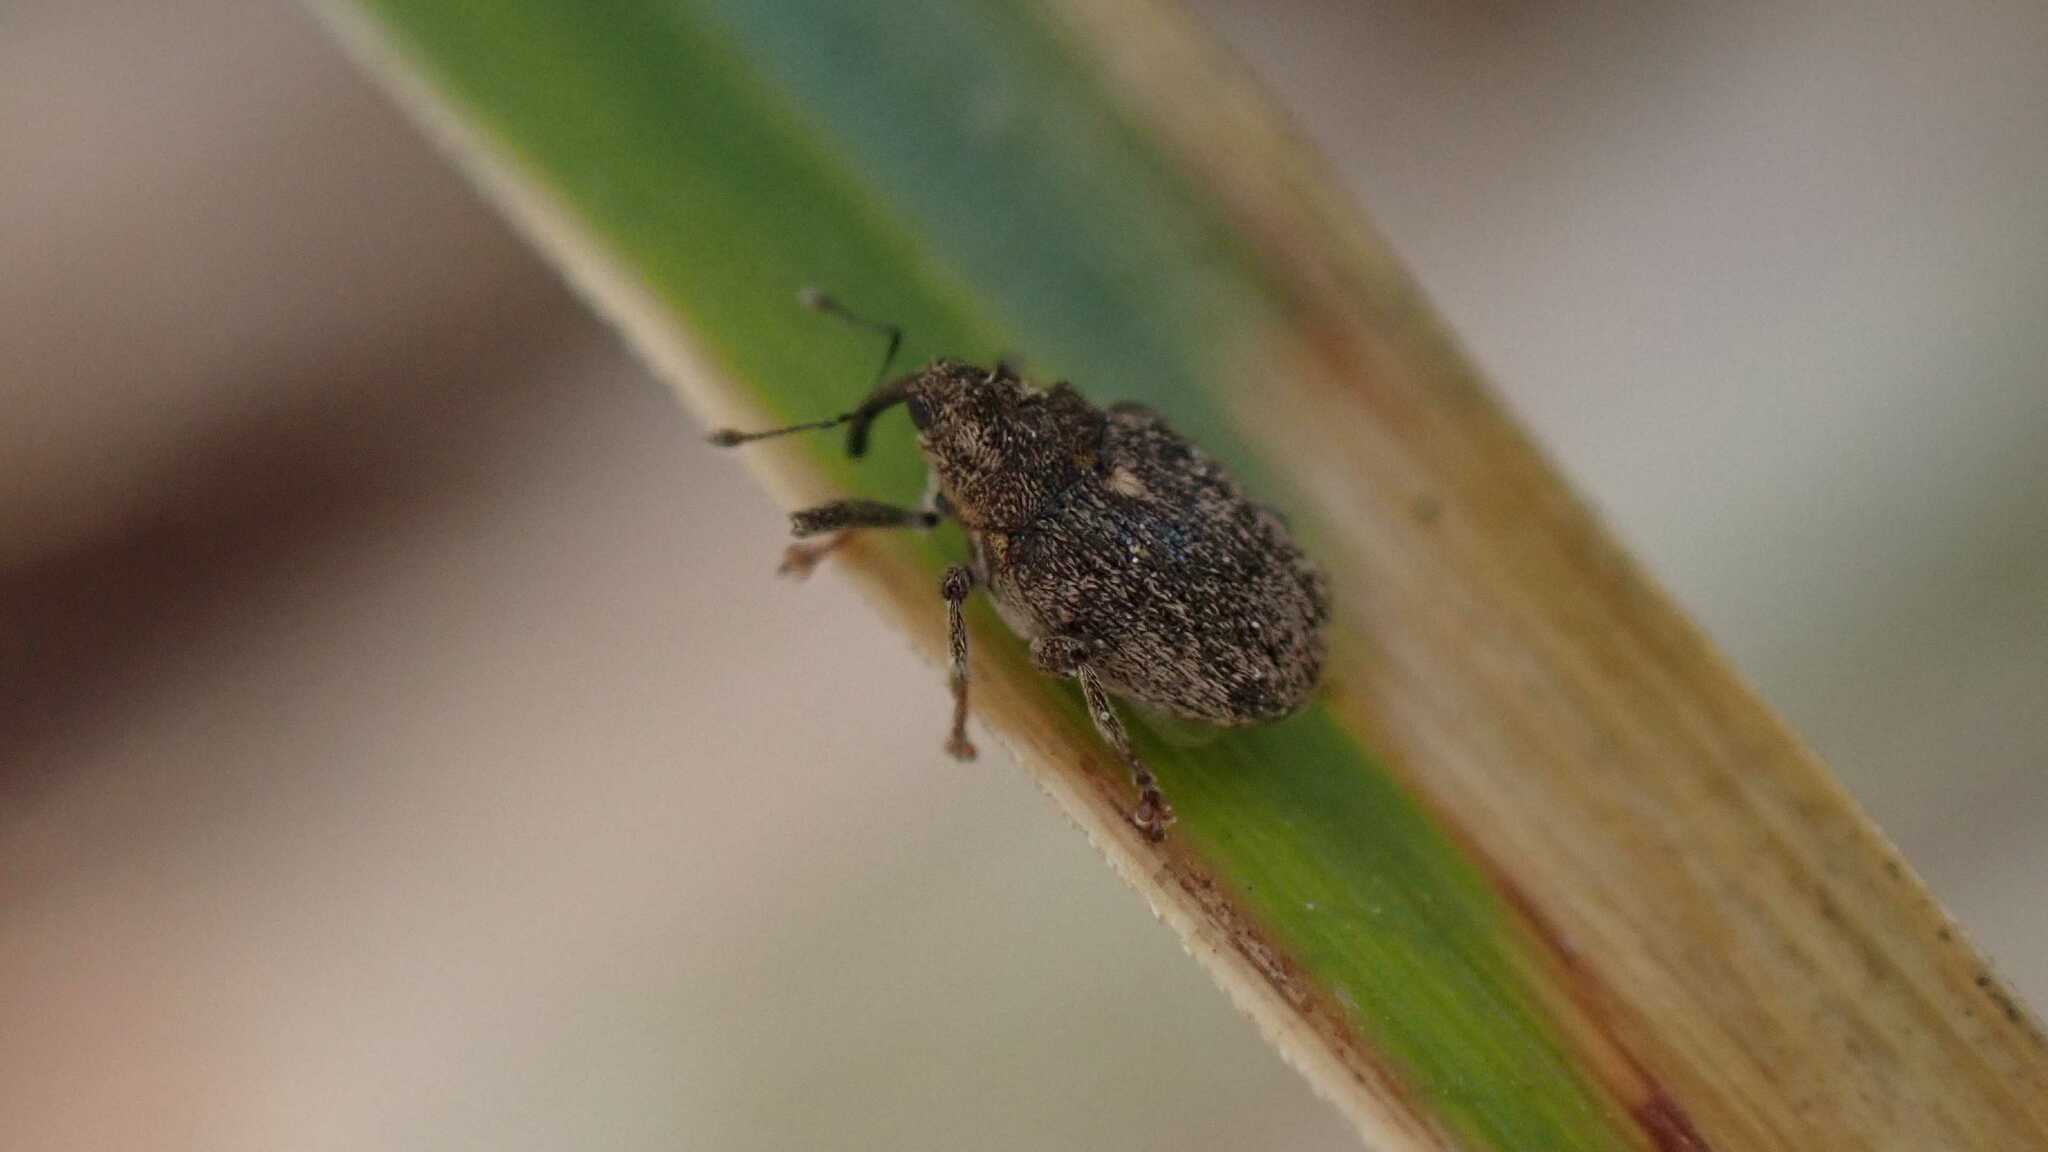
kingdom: Animalia
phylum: Arthropoda
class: Insecta
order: Coleoptera
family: Curculionidae
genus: Ceutorhynchus
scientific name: Ceutorhynchus pallidactylus
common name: Cabbage stem weavil
